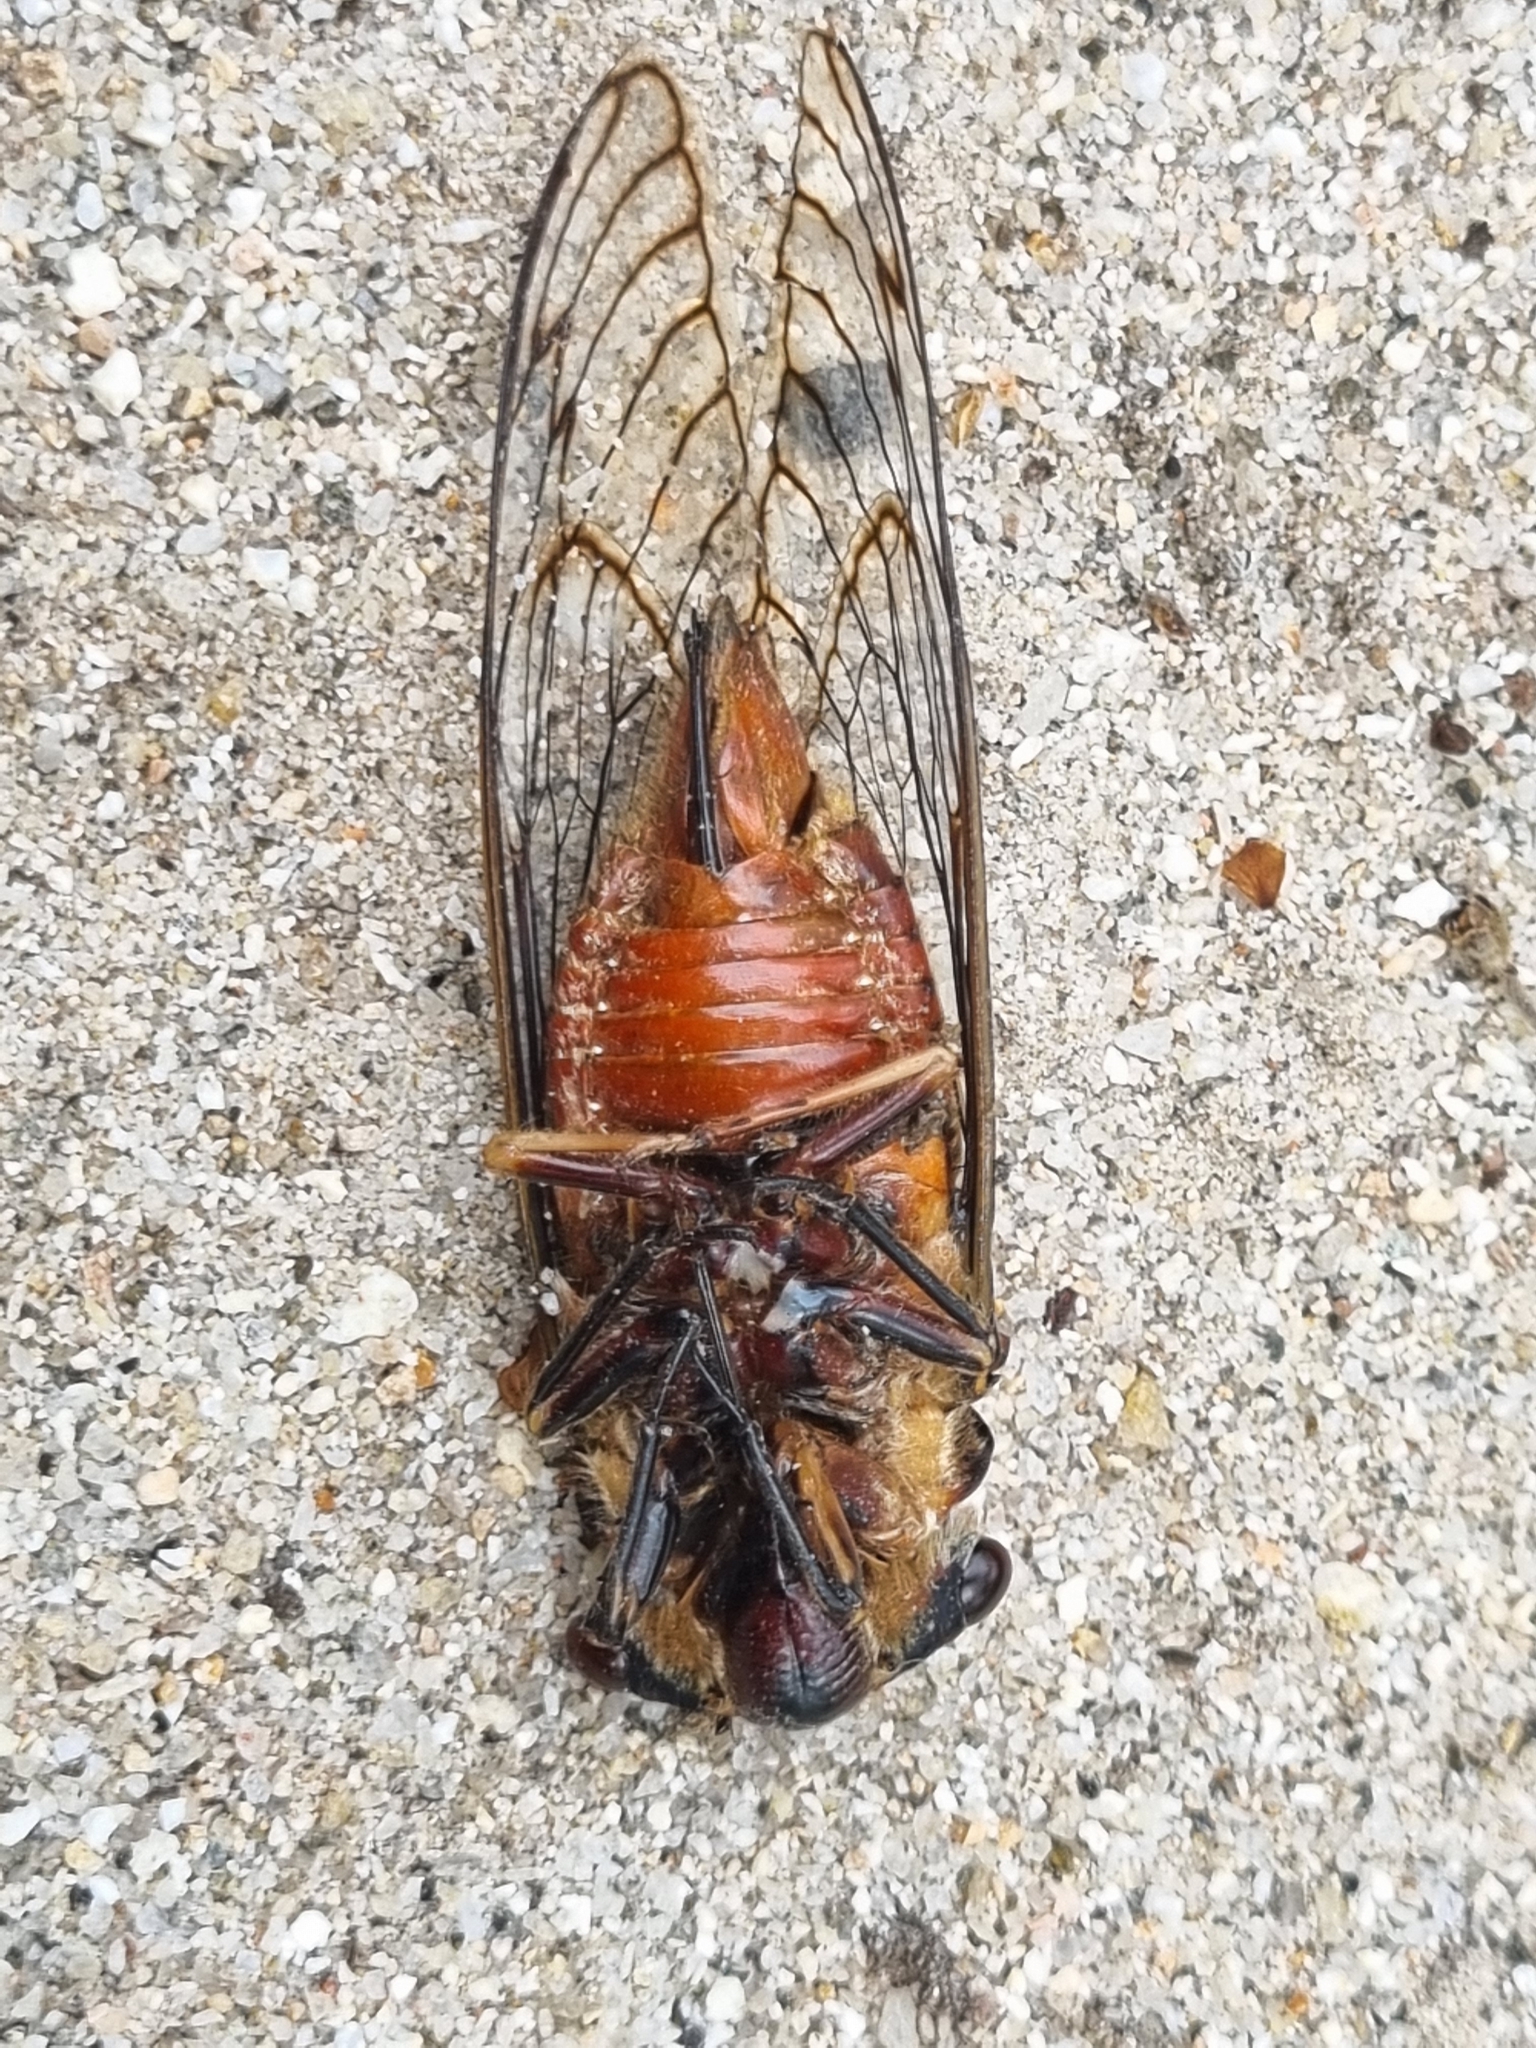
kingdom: Animalia
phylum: Arthropoda
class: Insecta
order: Hemiptera
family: Cicadidae
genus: Psaltoda
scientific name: Psaltoda aurora
